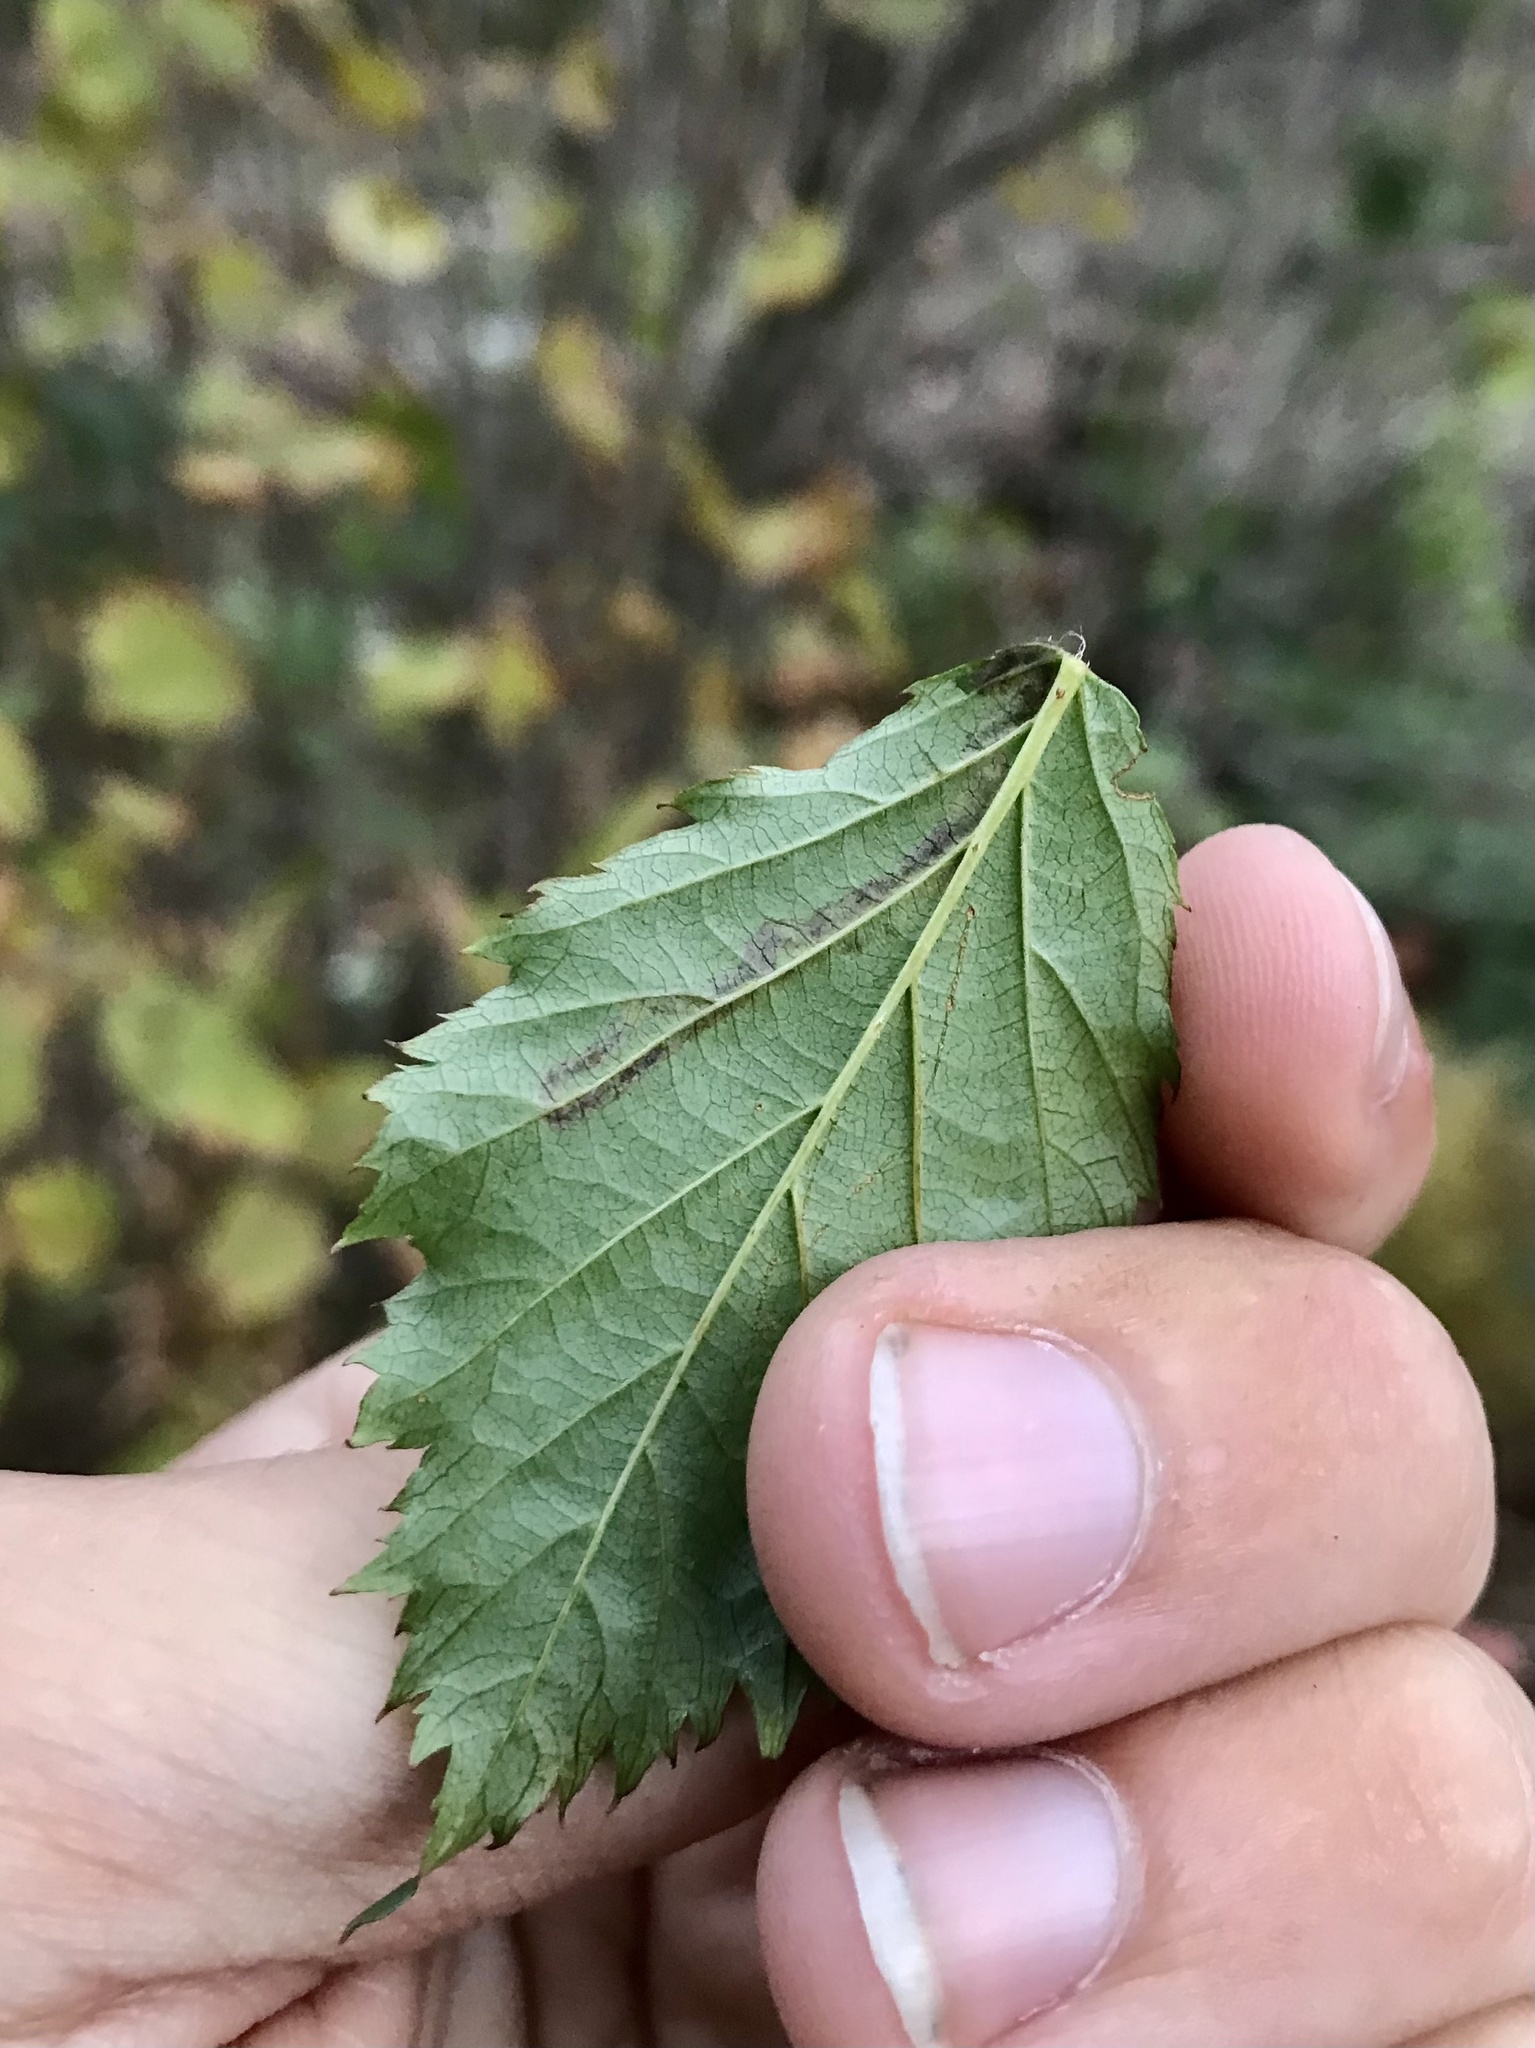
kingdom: Animalia
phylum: Arthropoda
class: Insecta
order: Lepidoptera
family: Nepticulidae
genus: Stigmella
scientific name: Stigmella villosella
